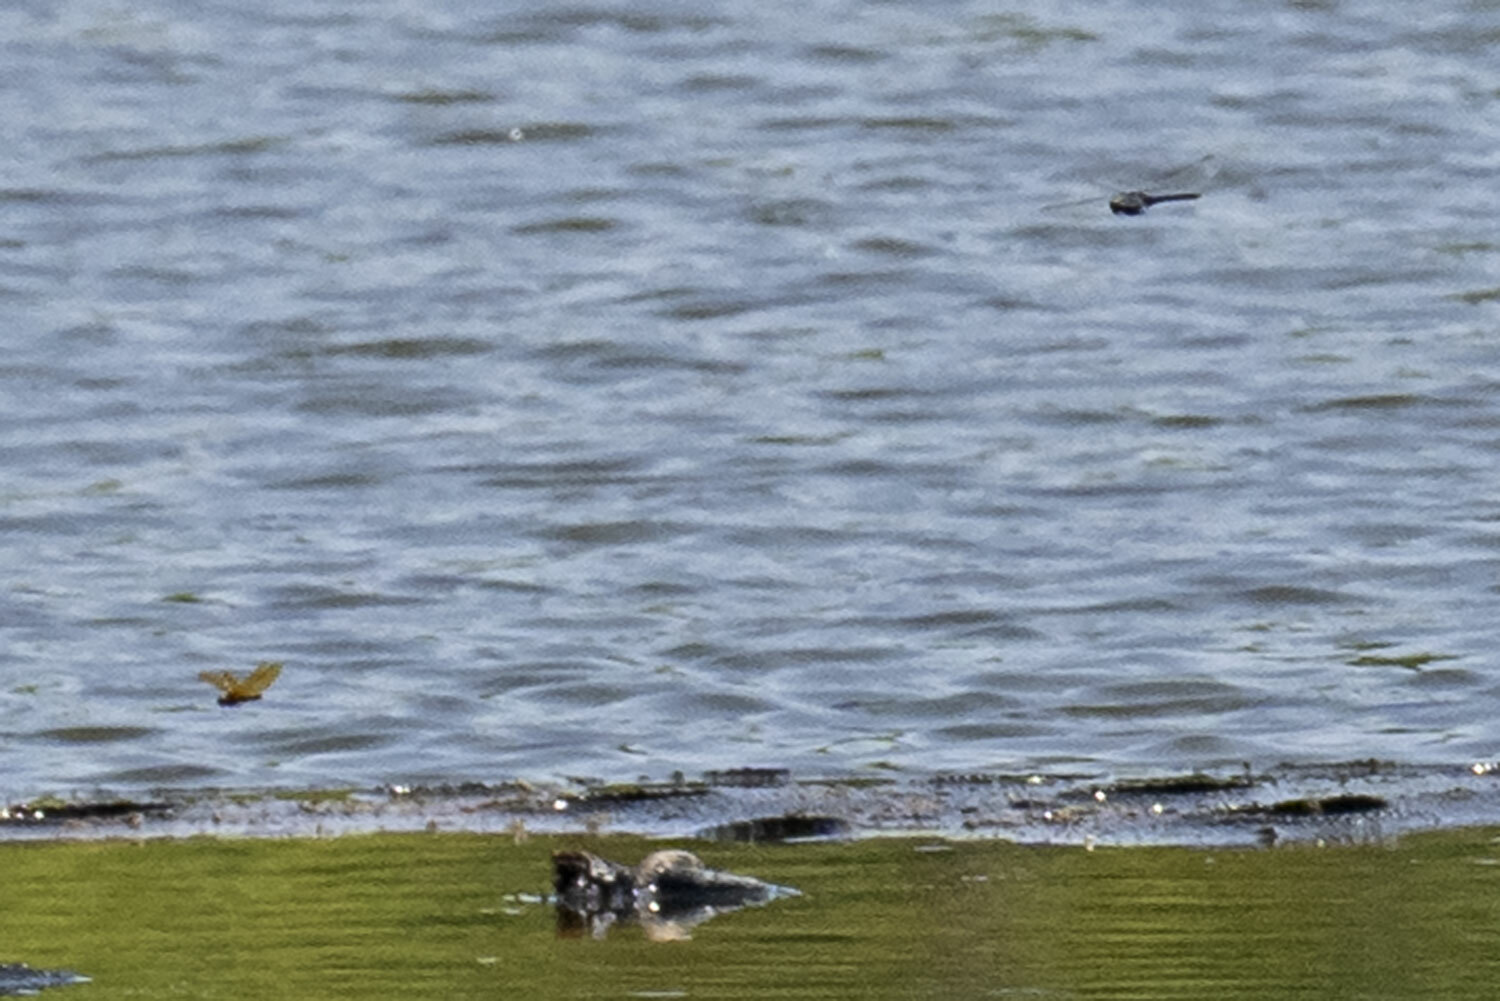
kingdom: Animalia
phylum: Arthropoda
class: Insecta
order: Odonata
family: Libellulidae
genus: Perithemis
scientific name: Perithemis tenera
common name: Eastern amberwing
